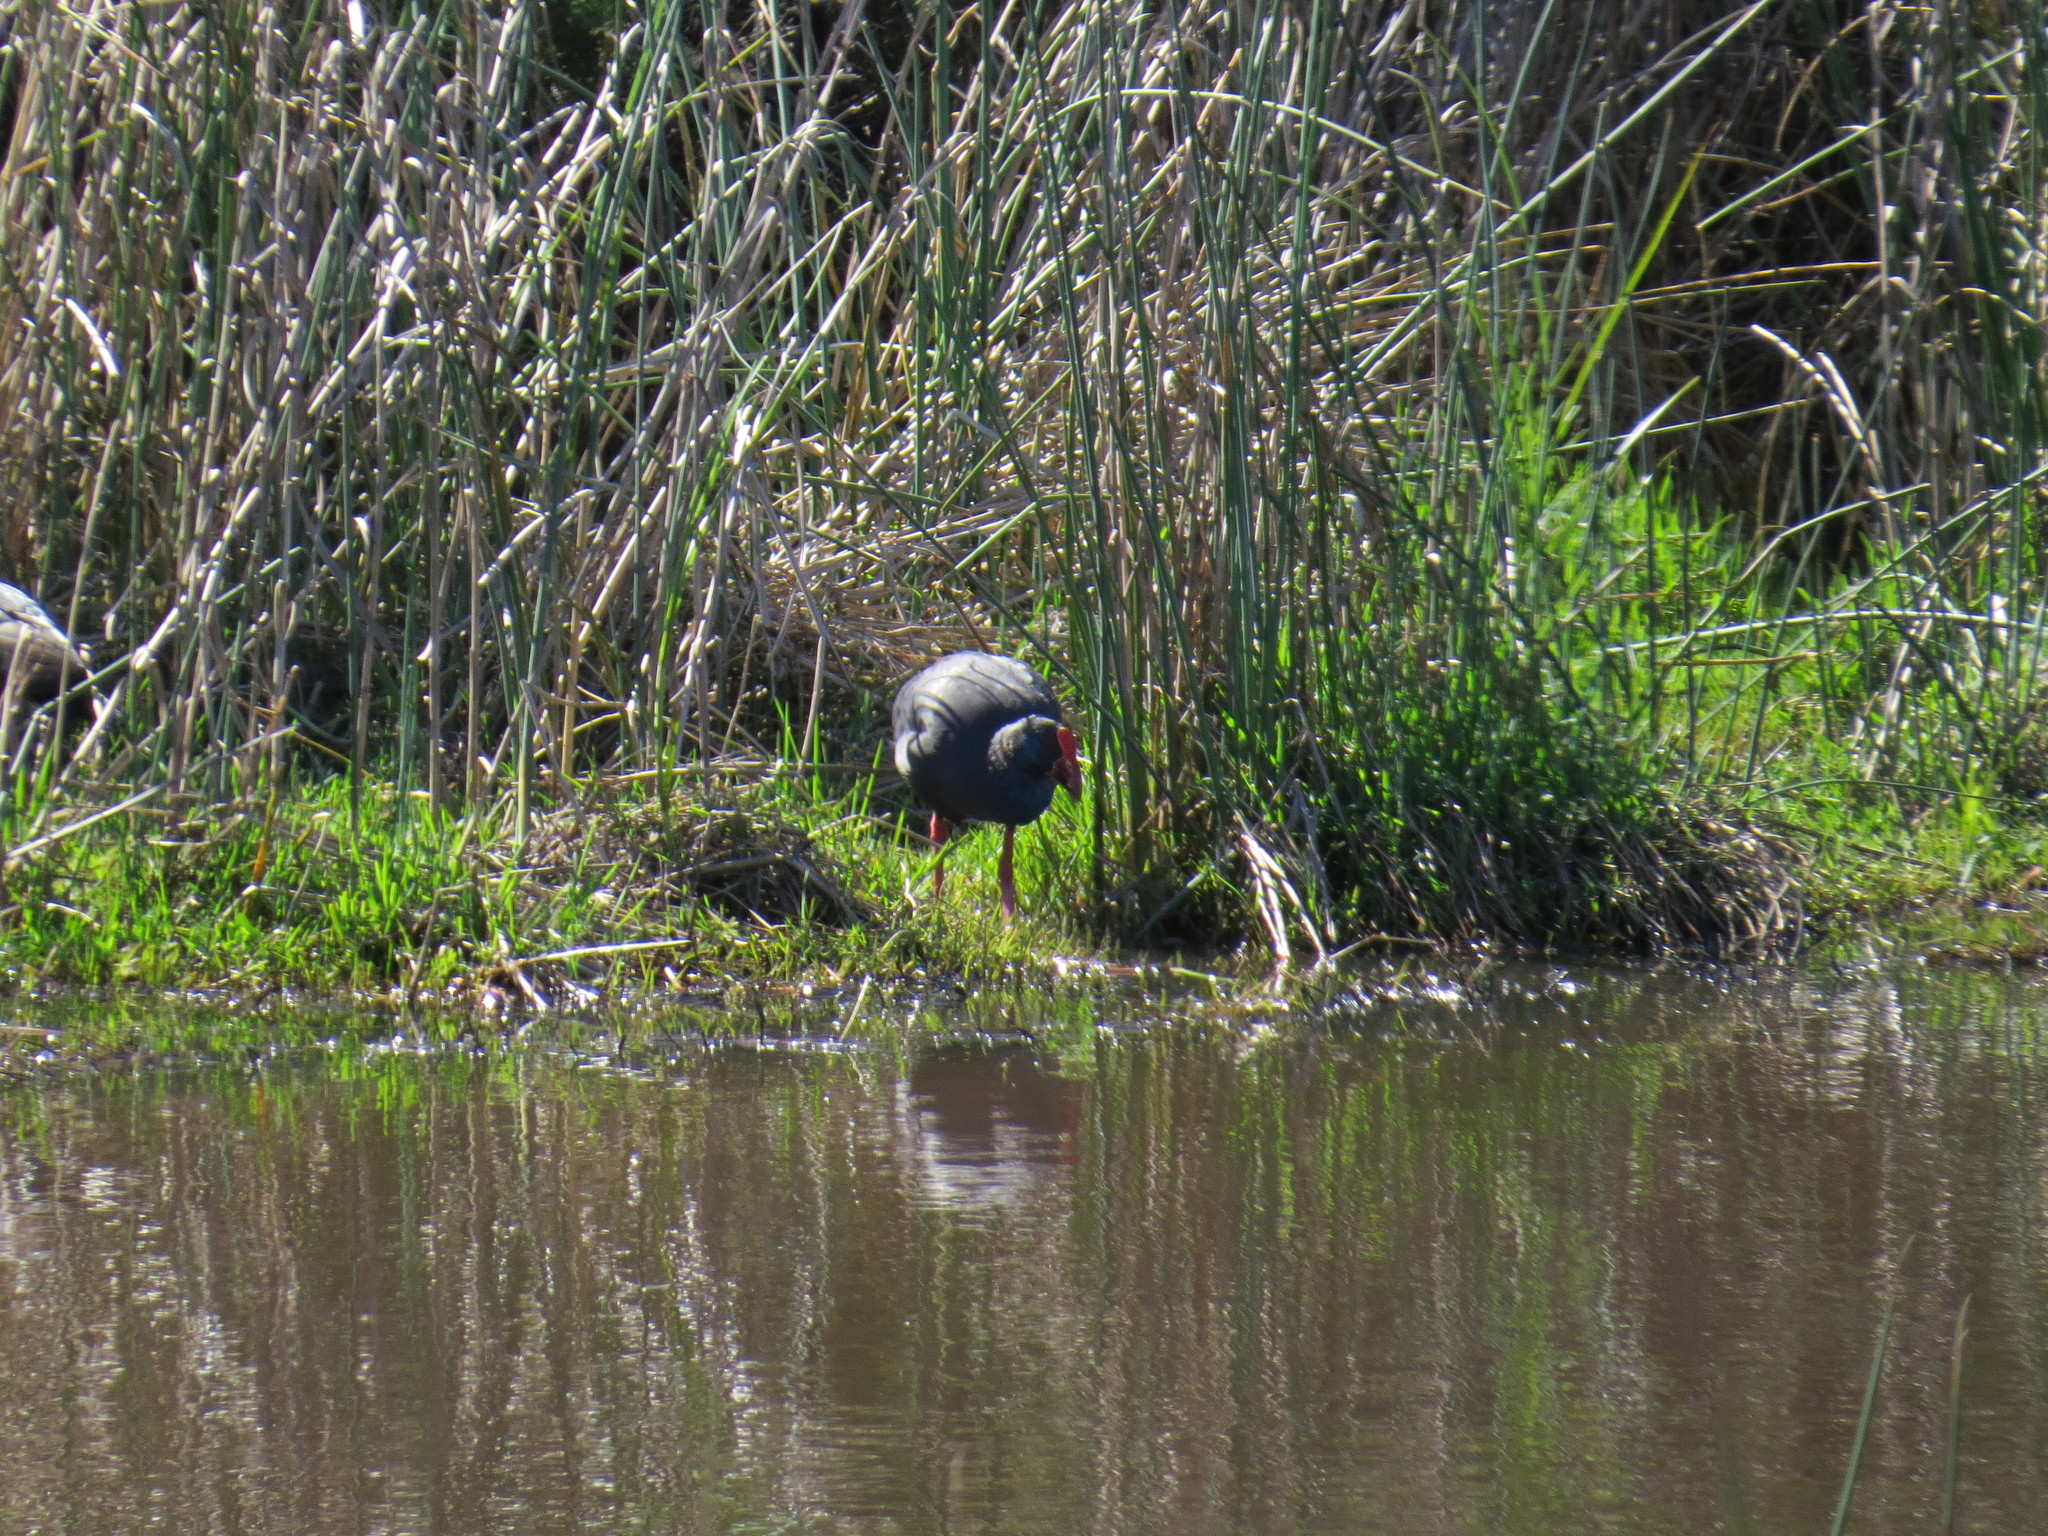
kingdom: Animalia
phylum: Chordata
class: Aves
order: Gruiformes
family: Rallidae
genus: Porphyrio
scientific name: Porphyrio porphyrio
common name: Purple swamphen
